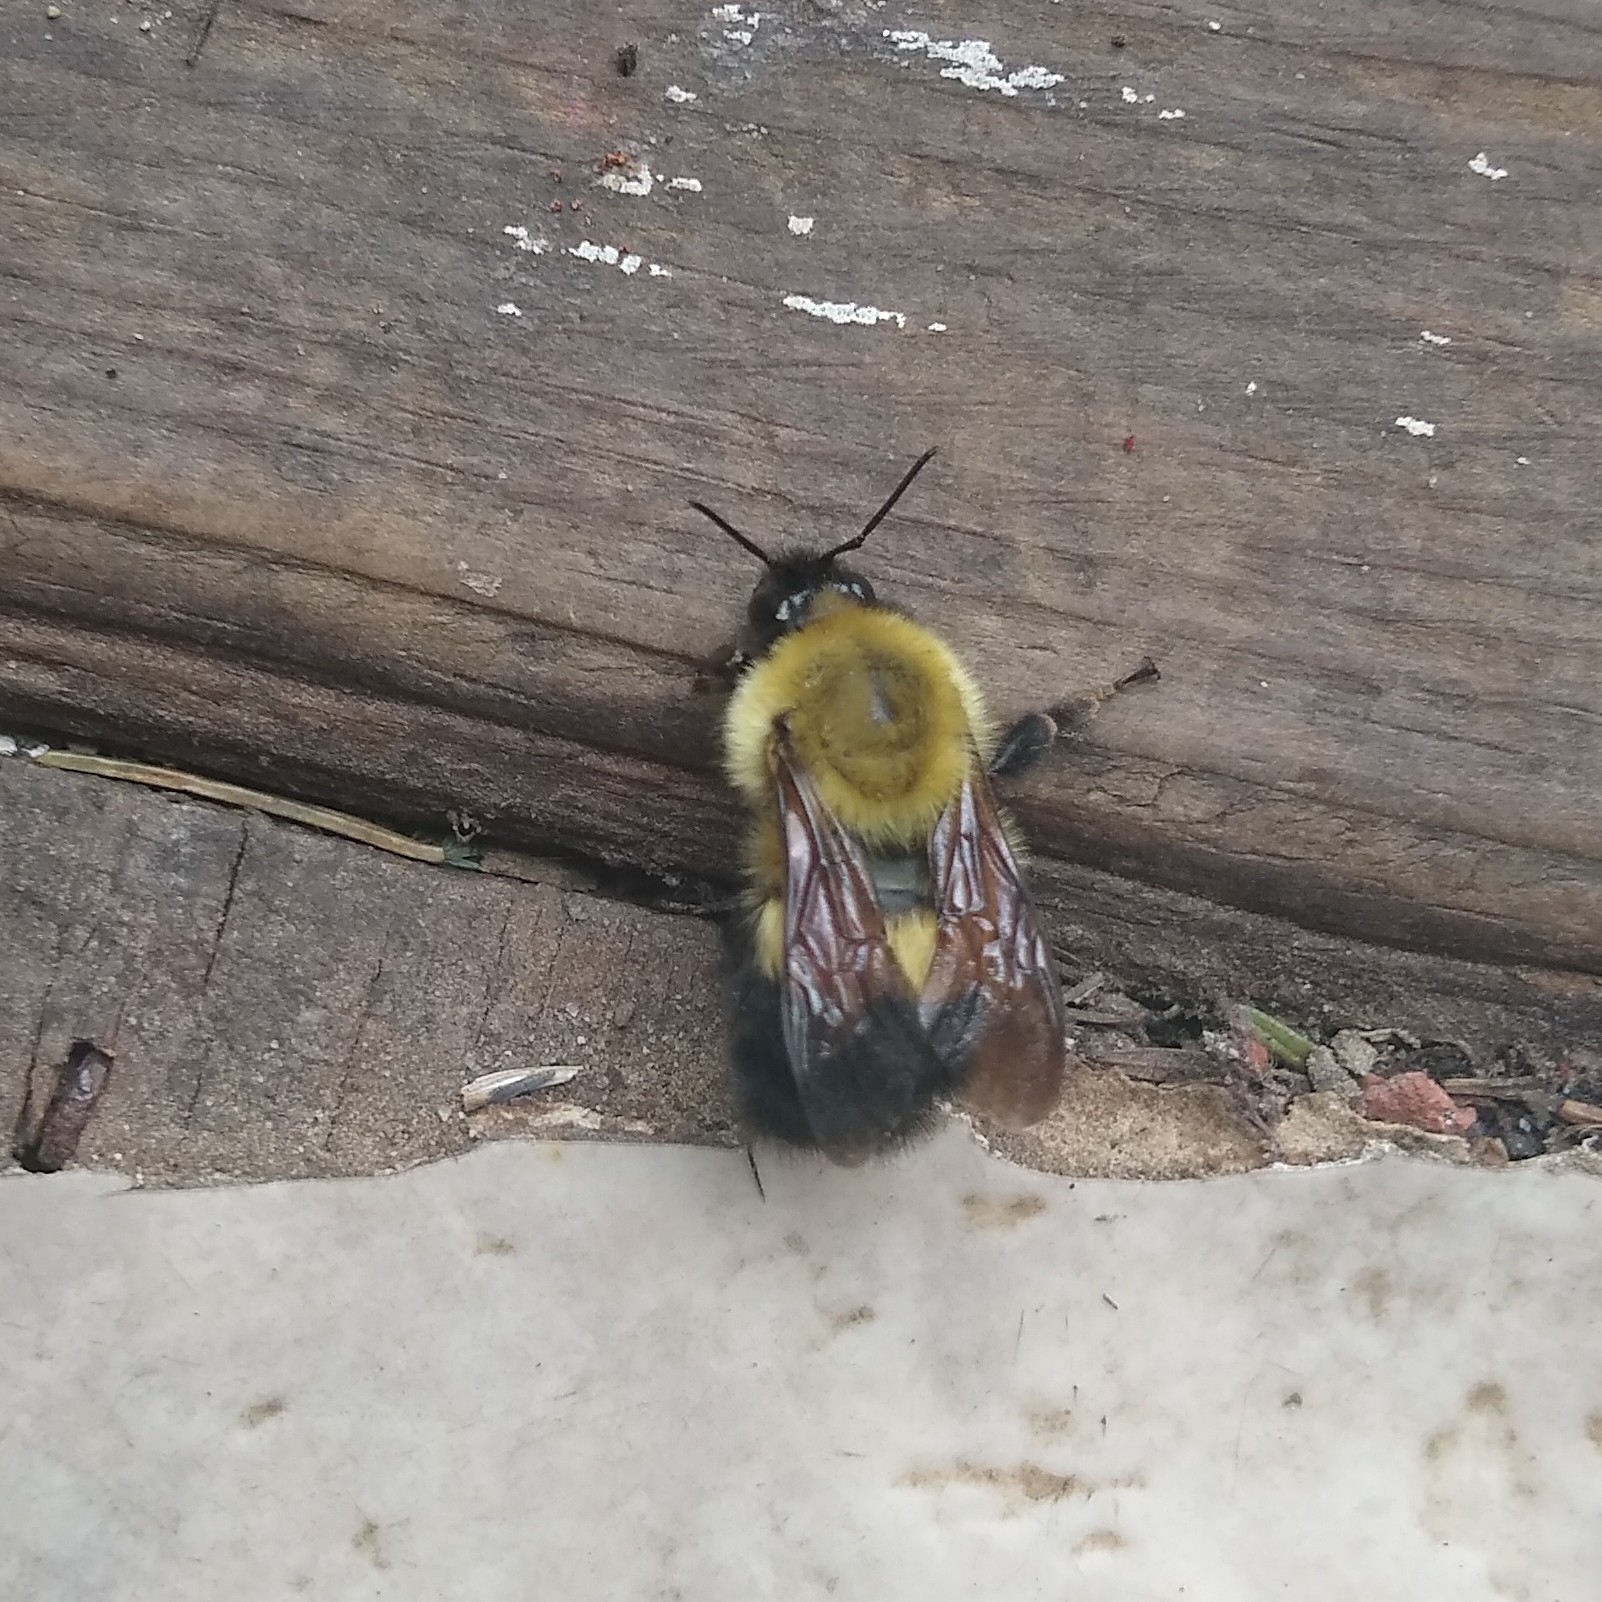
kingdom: Animalia
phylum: Arthropoda
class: Insecta
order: Hymenoptera
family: Apidae
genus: Bombus
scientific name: Bombus perplexus
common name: Confusing bumble bee
